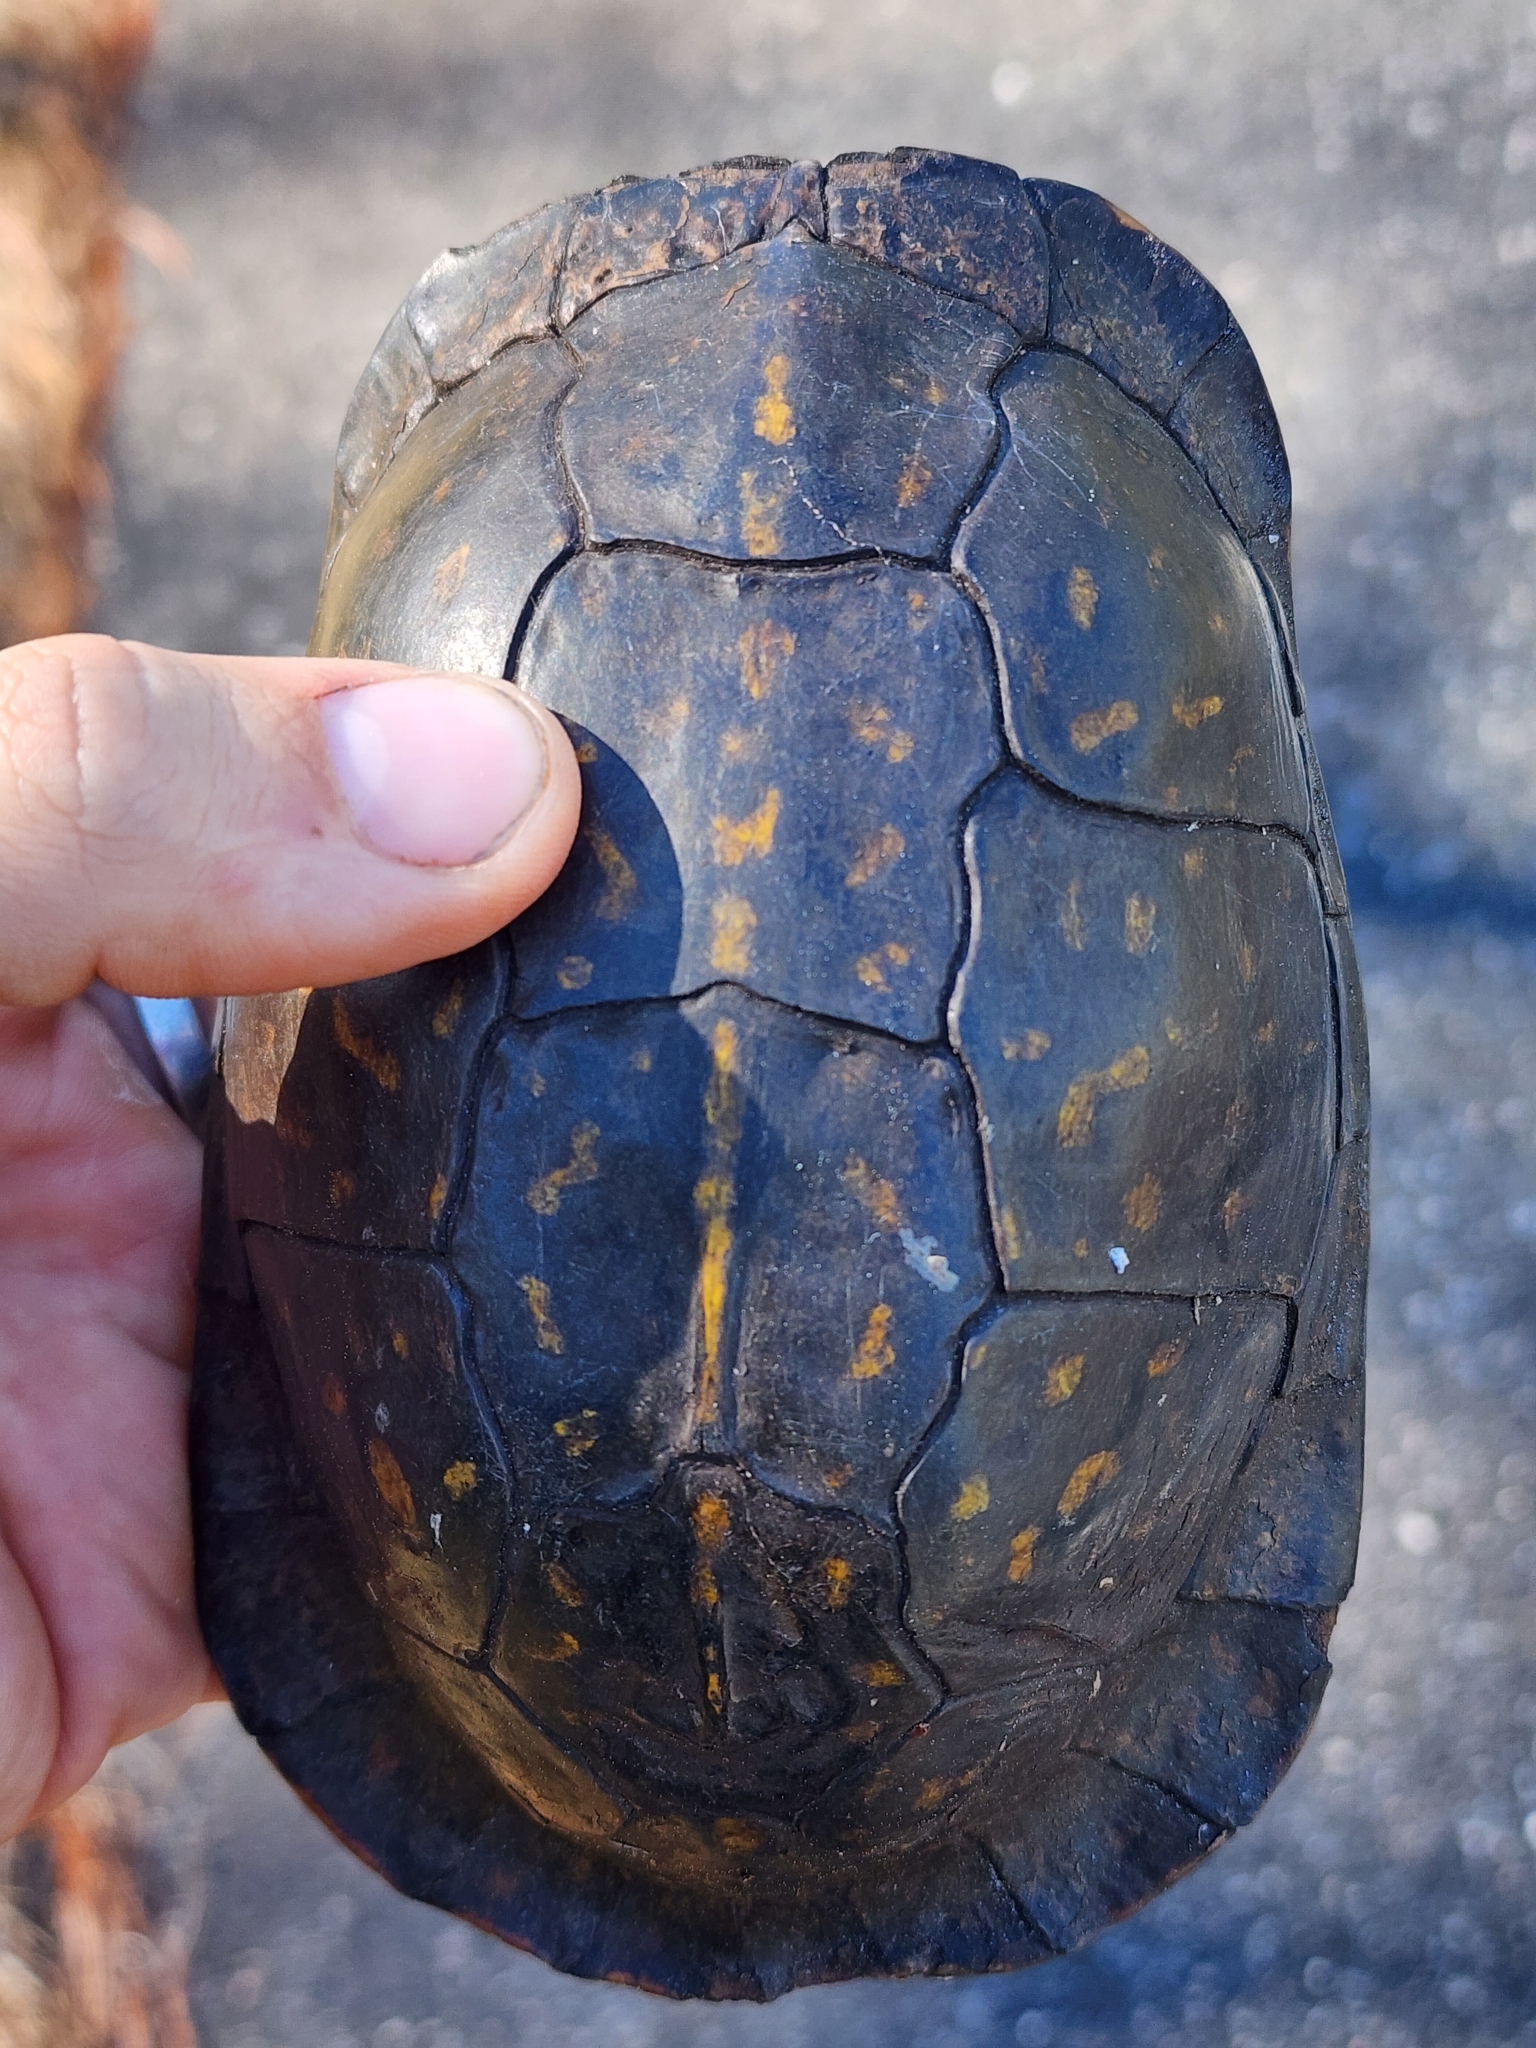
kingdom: Animalia
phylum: Chordata
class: Testudines
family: Emydidae
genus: Terrapene
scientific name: Terrapene carolina
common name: Common box turtle
